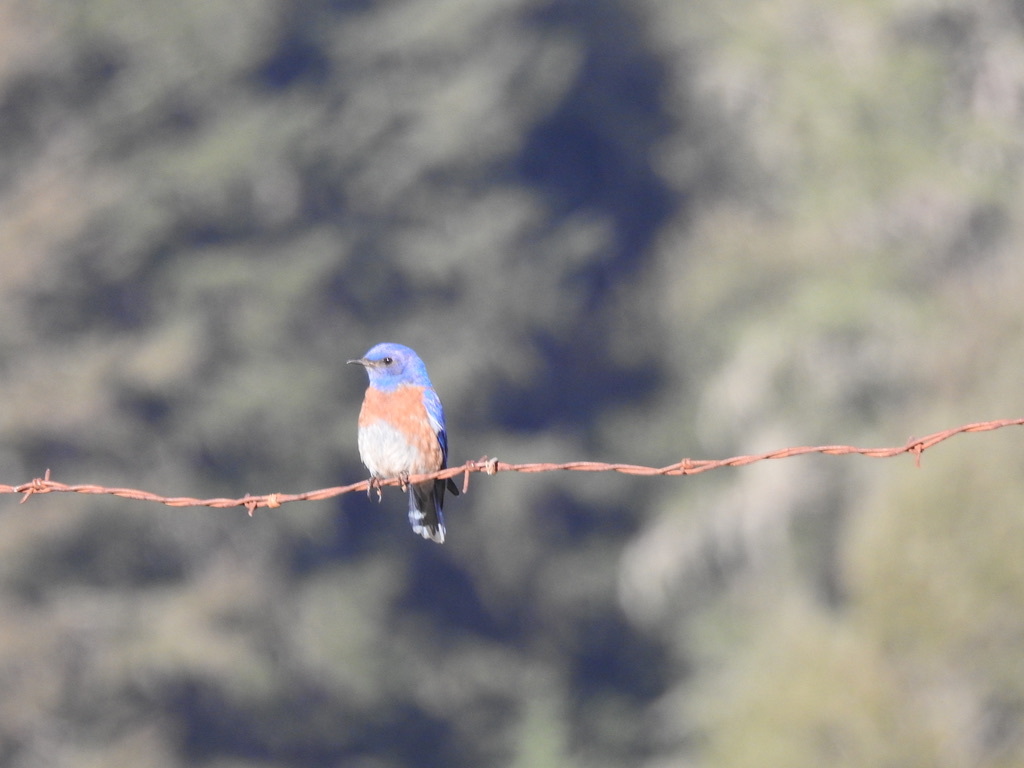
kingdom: Animalia
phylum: Chordata
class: Aves
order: Passeriformes
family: Turdidae
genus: Sialia
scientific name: Sialia mexicana
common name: Western bluebird
